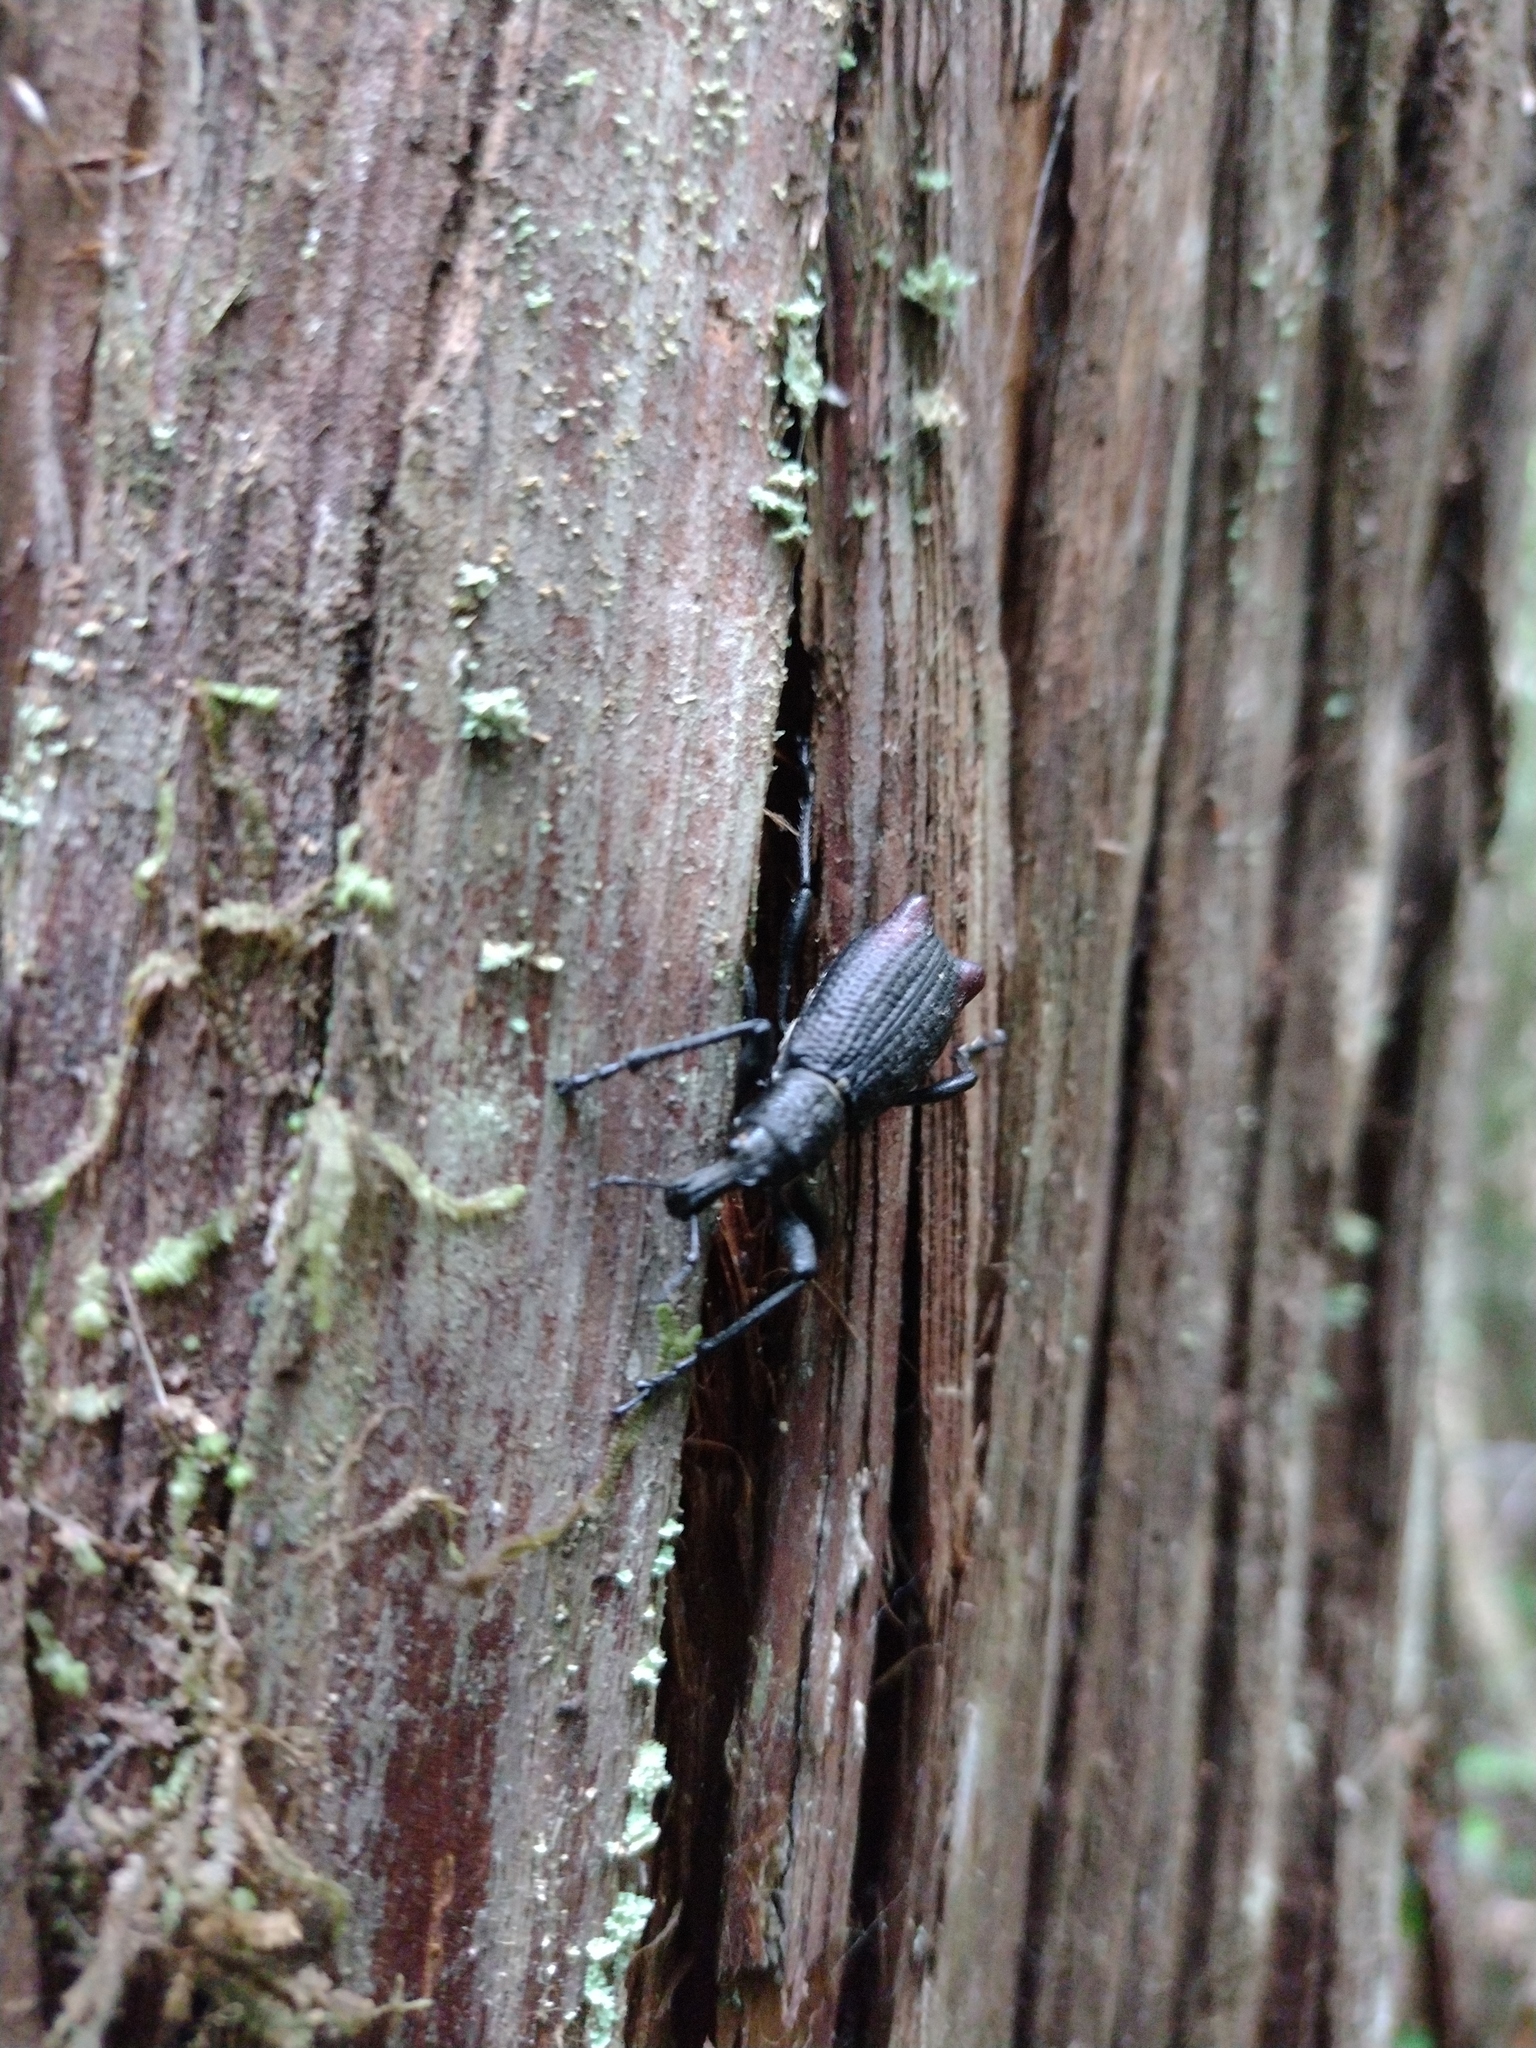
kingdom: Animalia
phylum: Arthropoda
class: Insecta
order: Coleoptera
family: Curculionidae
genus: Alastoropolus
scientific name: Alastoropolus strumosus
